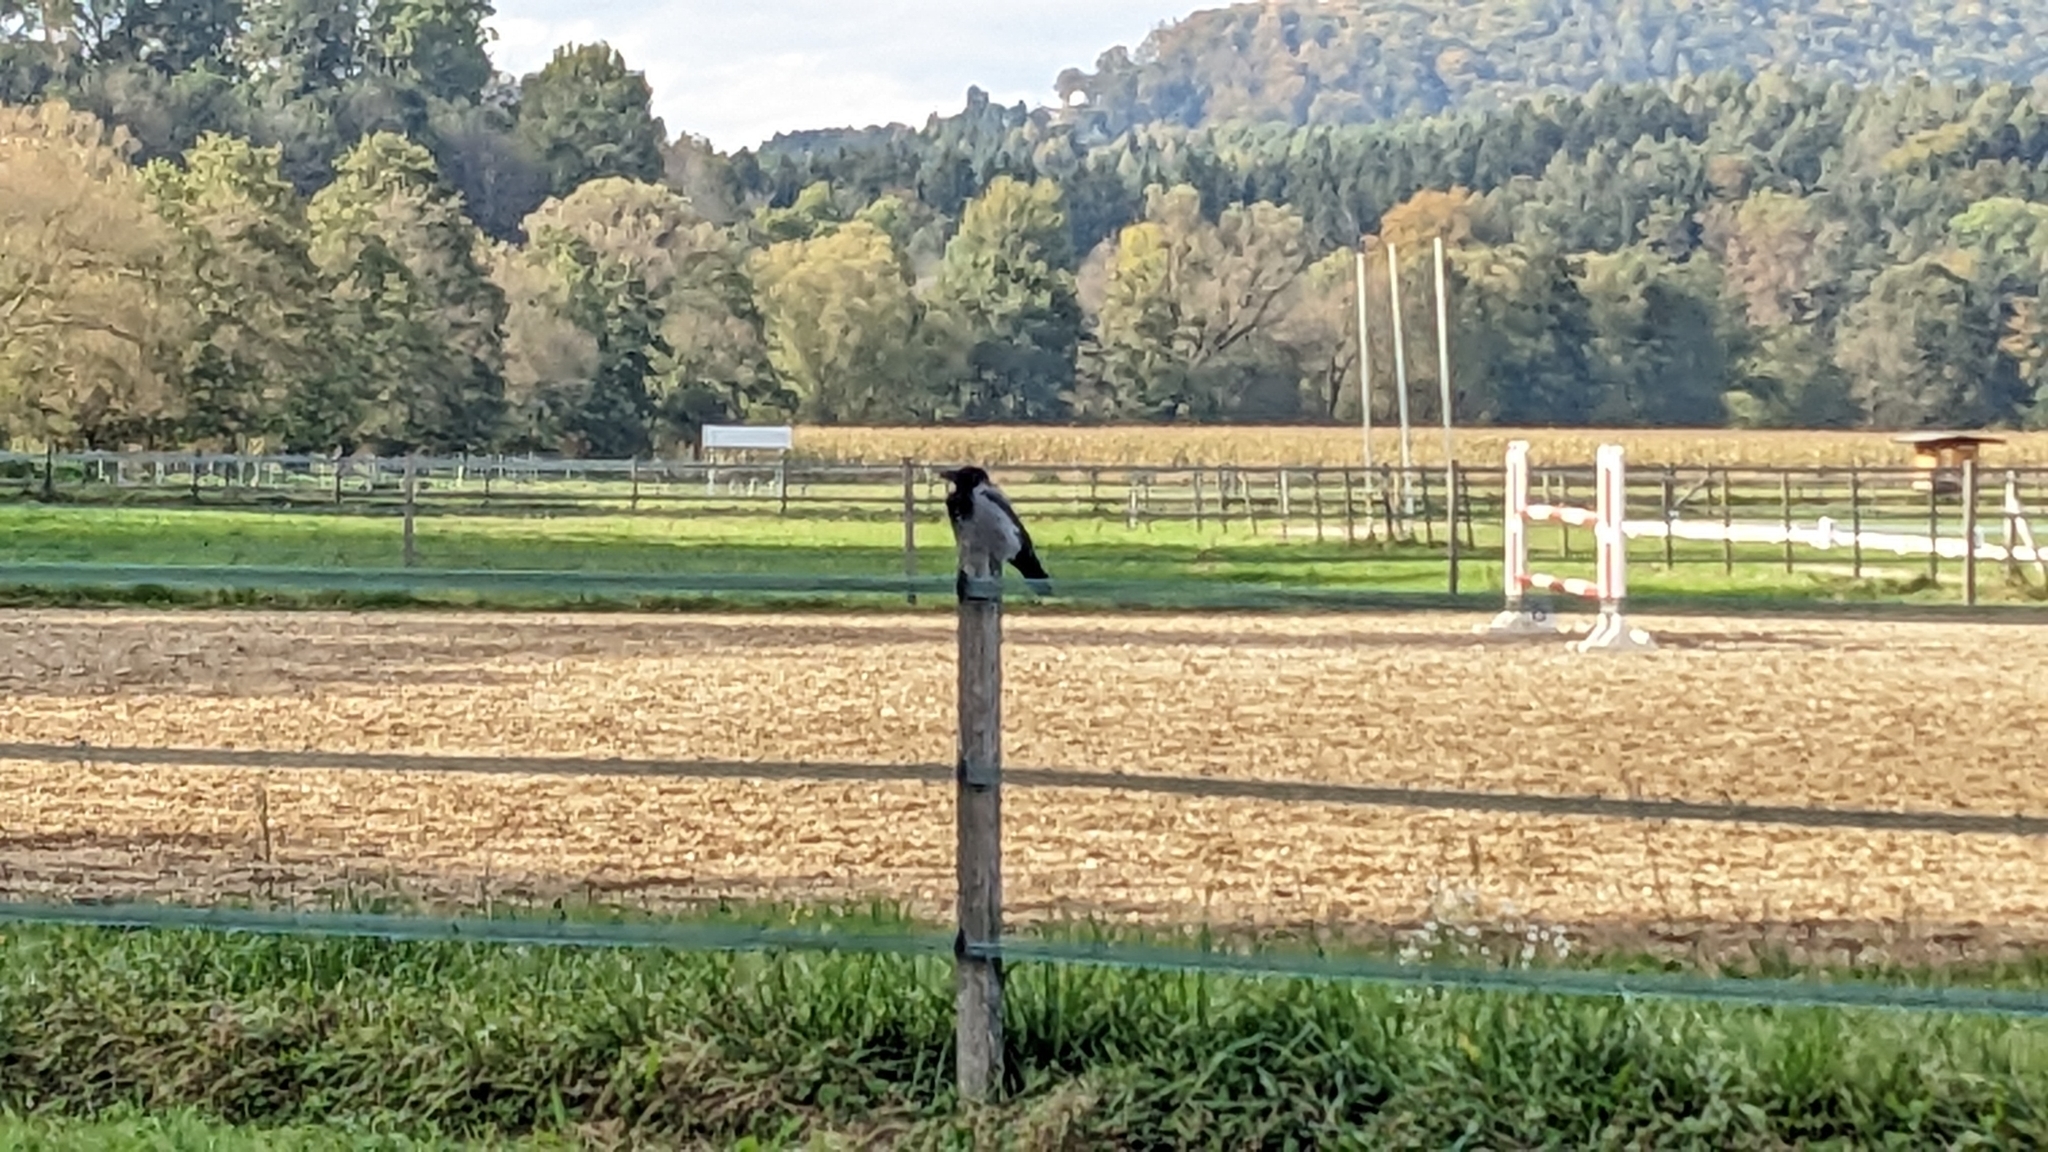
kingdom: Animalia
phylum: Chordata
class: Aves
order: Passeriformes
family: Corvidae
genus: Corvus
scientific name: Corvus cornix
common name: Hooded crow
